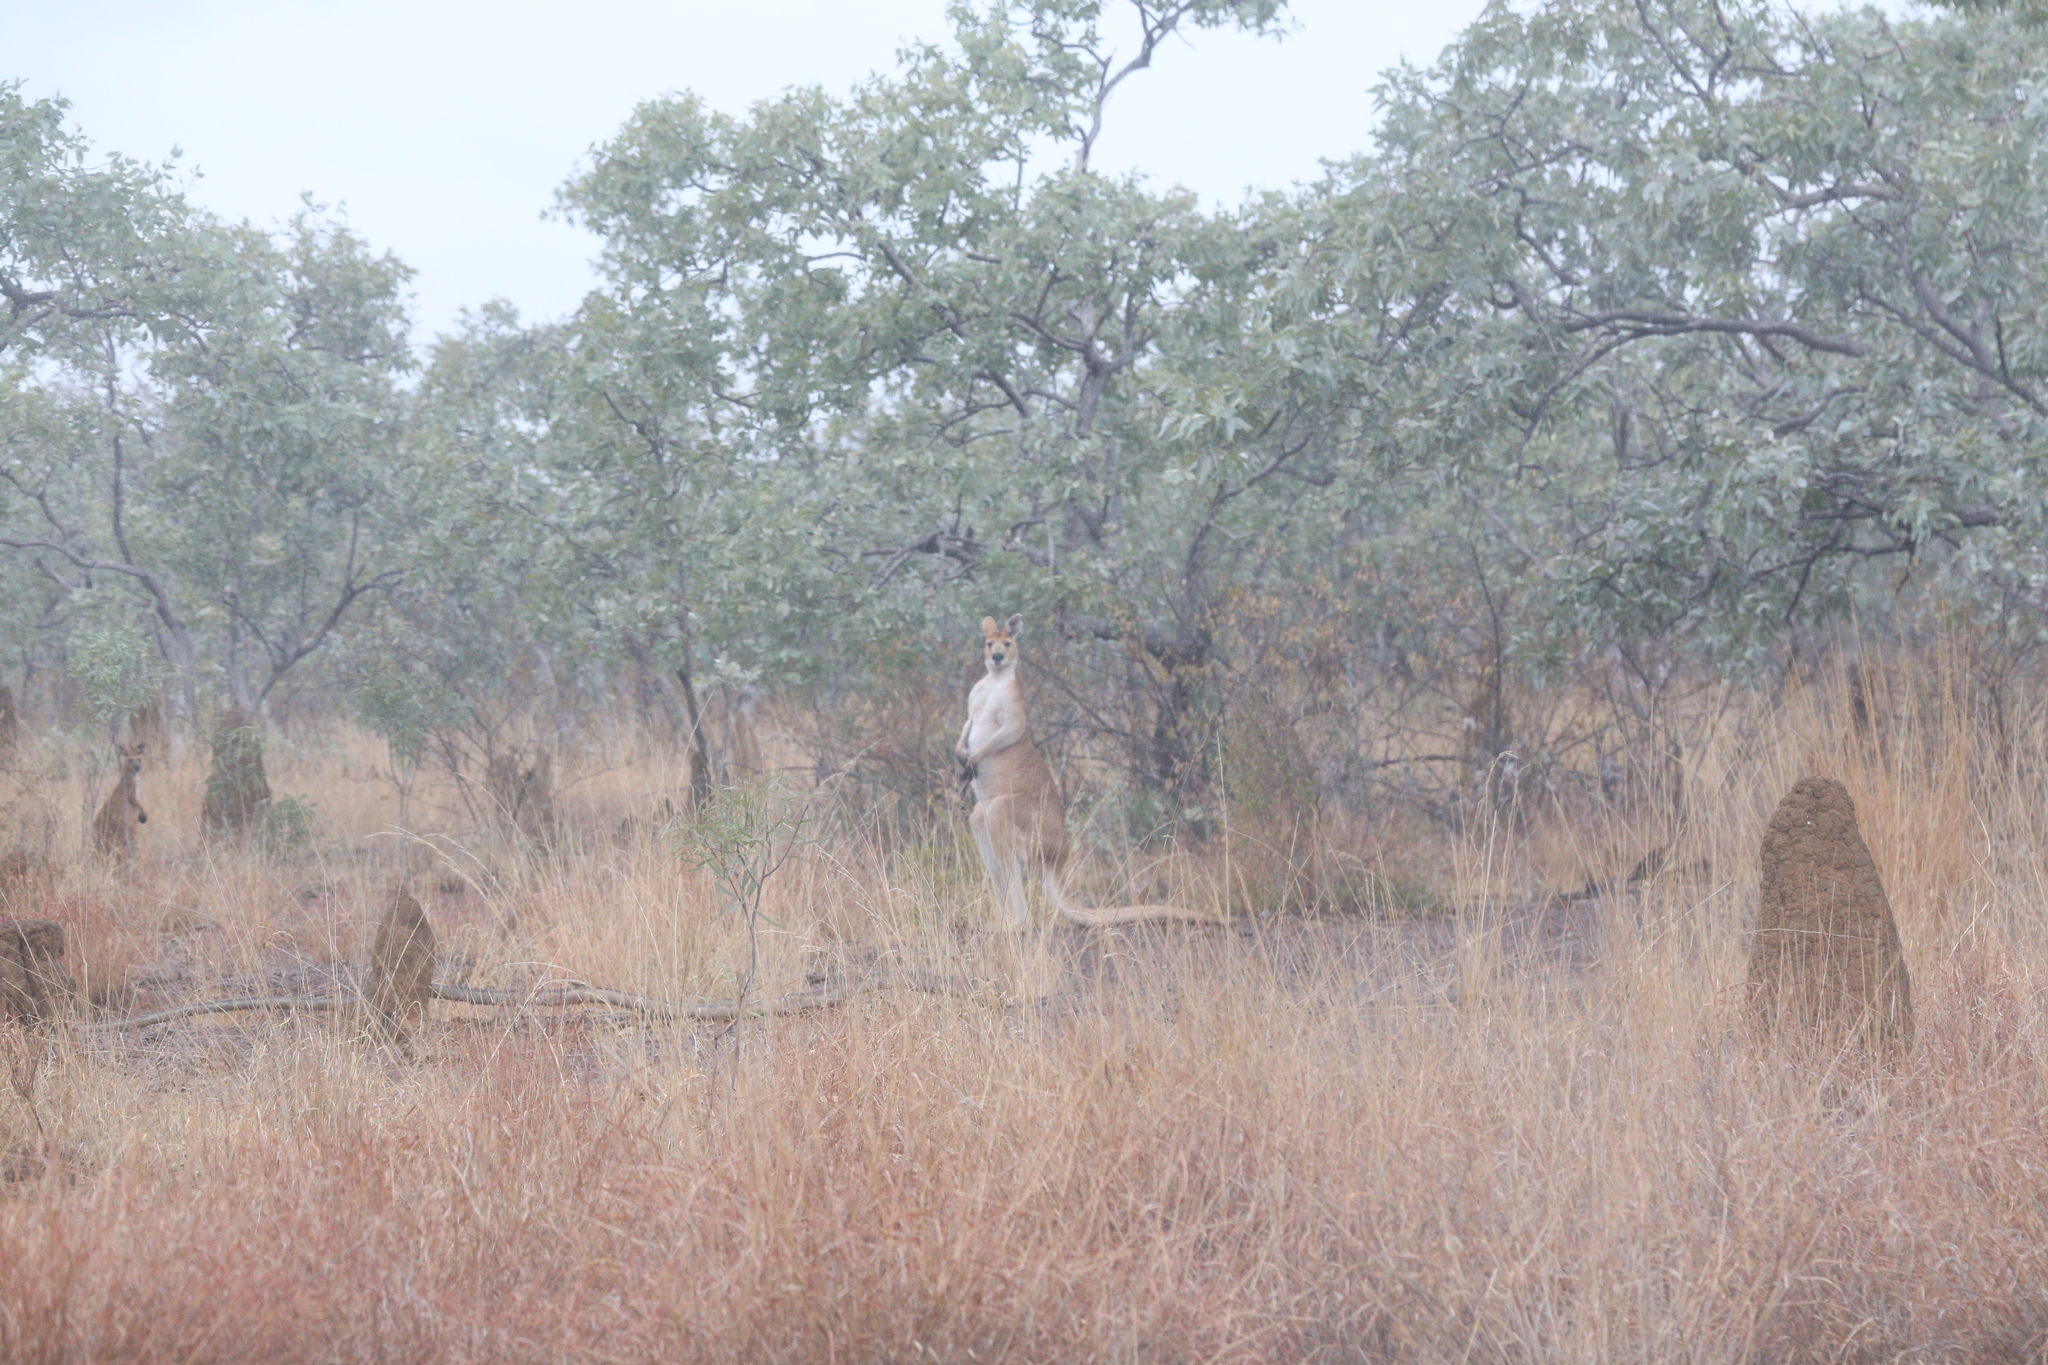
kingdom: Animalia
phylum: Chordata
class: Mammalia
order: Diprotodontia
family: Macropodidae
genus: Macropus
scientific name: Macropus antilopinus
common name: Antilopine kangaroo
